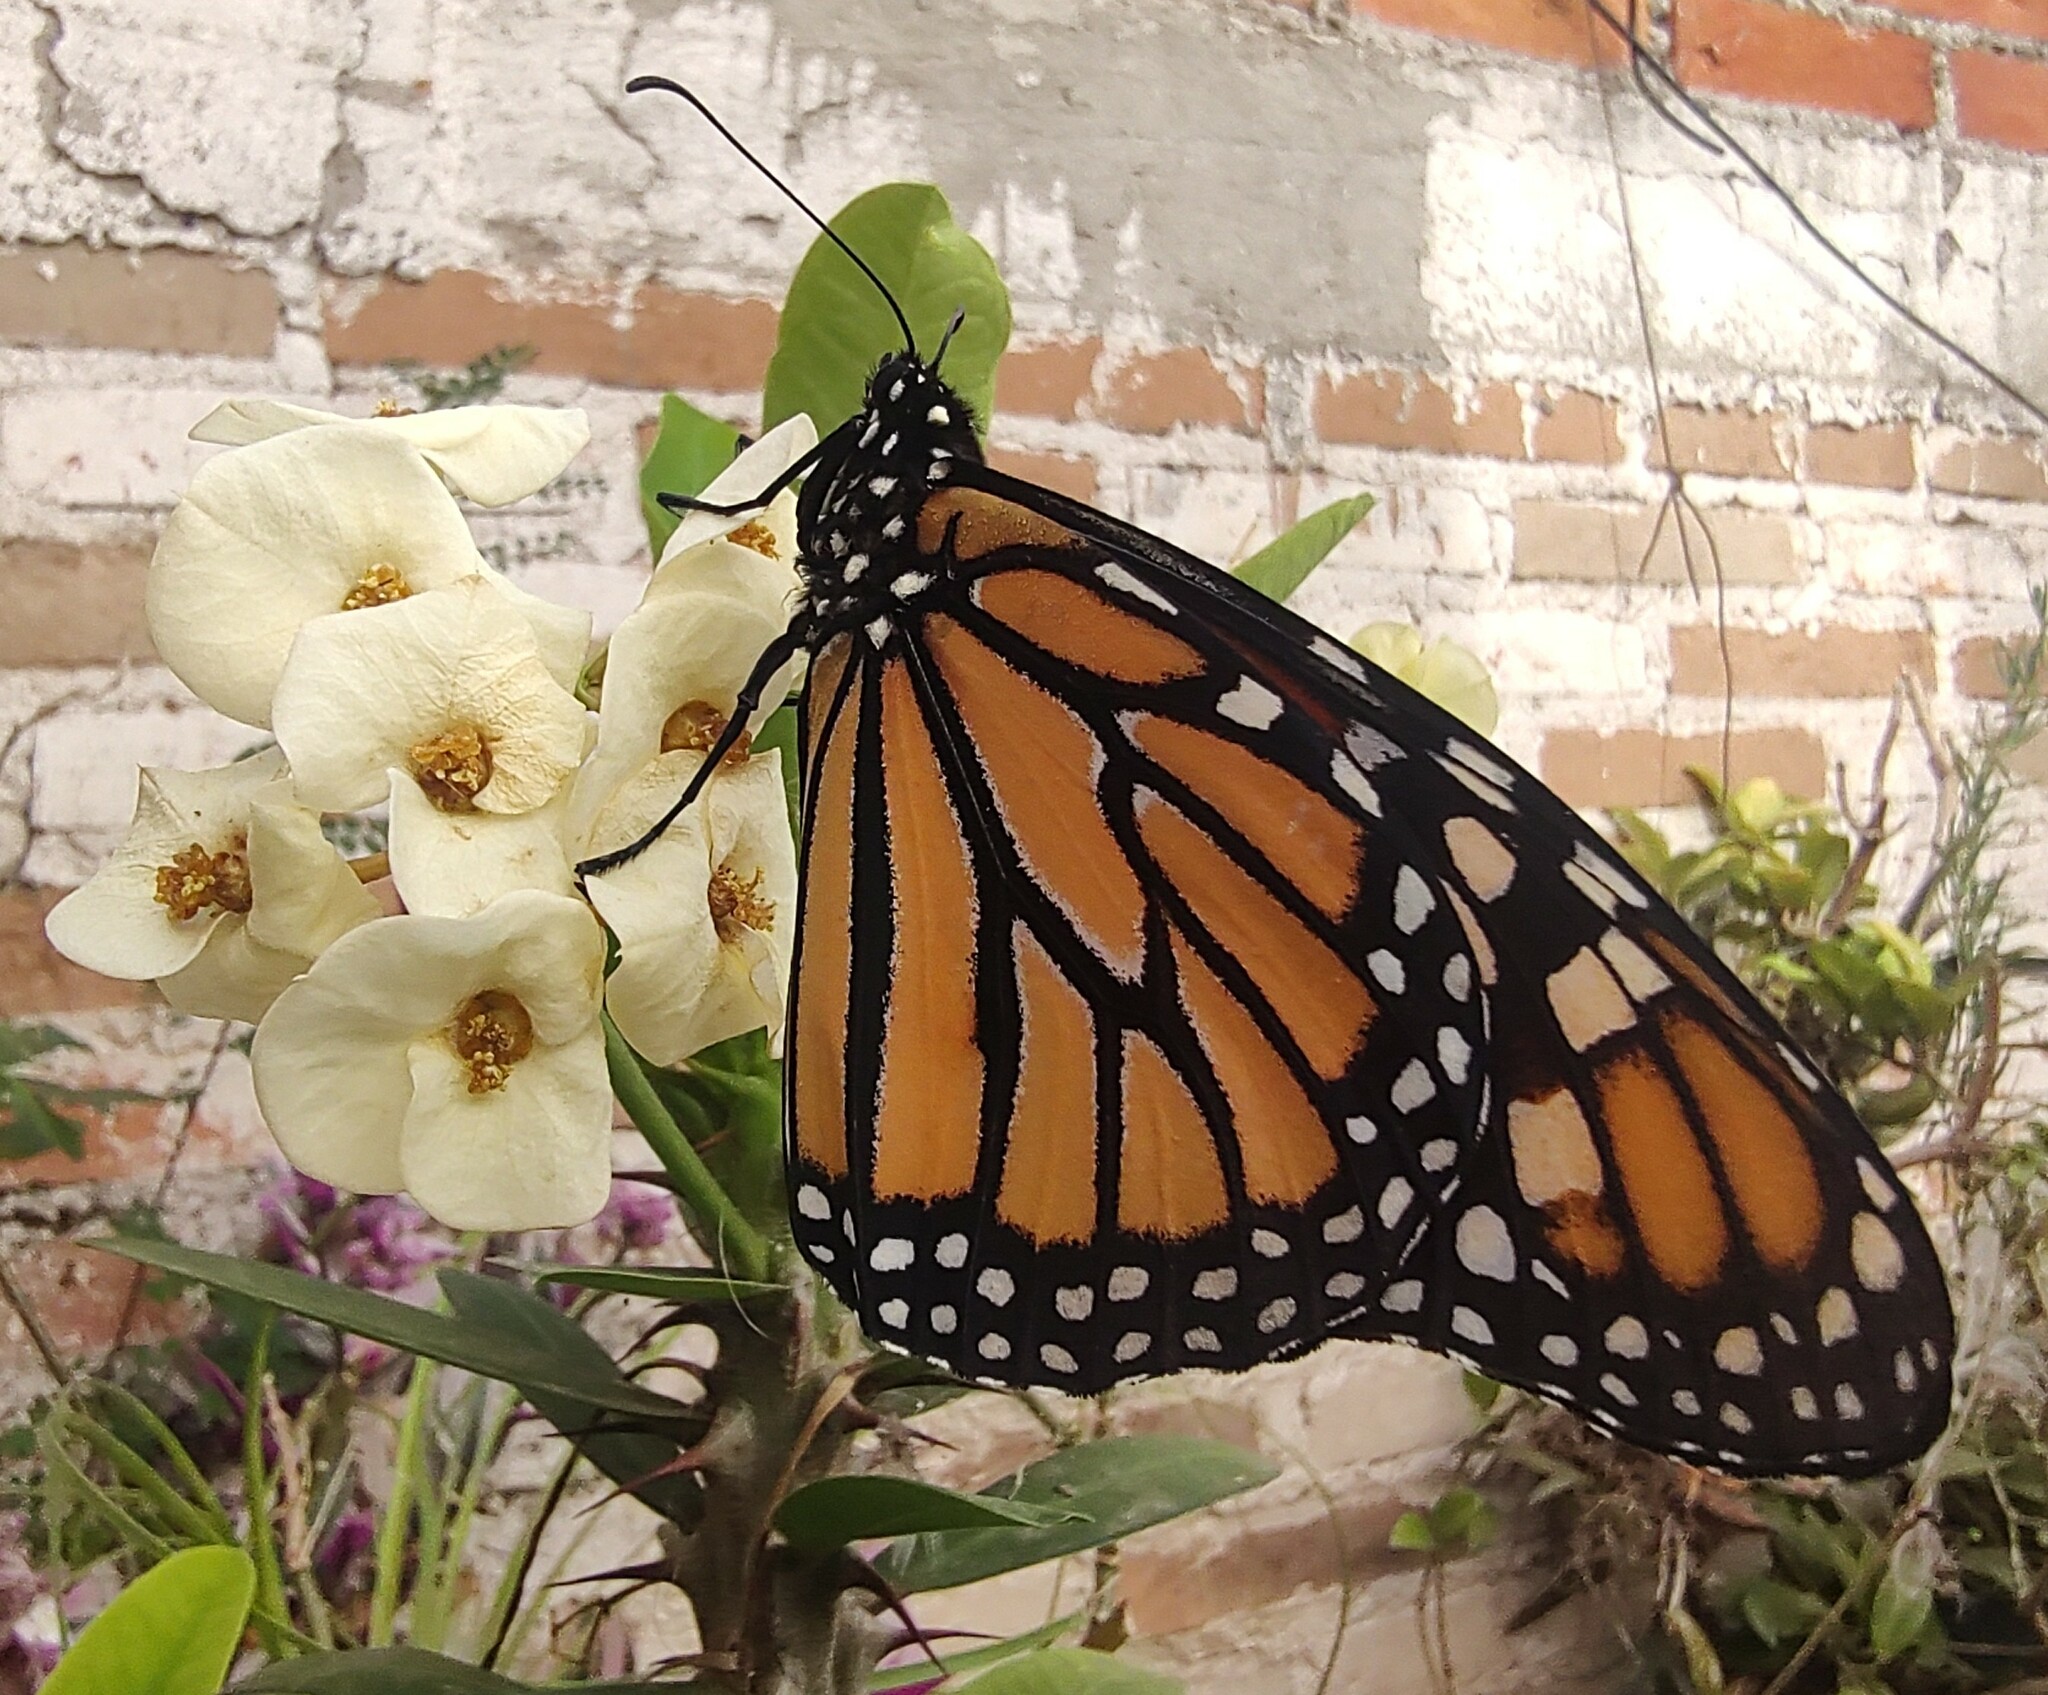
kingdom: Animalia
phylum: Arthropoda
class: Insecta
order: Lepidoptera
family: Nymphalidae
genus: Danaus
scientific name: Danaus plexippus
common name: Monarch
